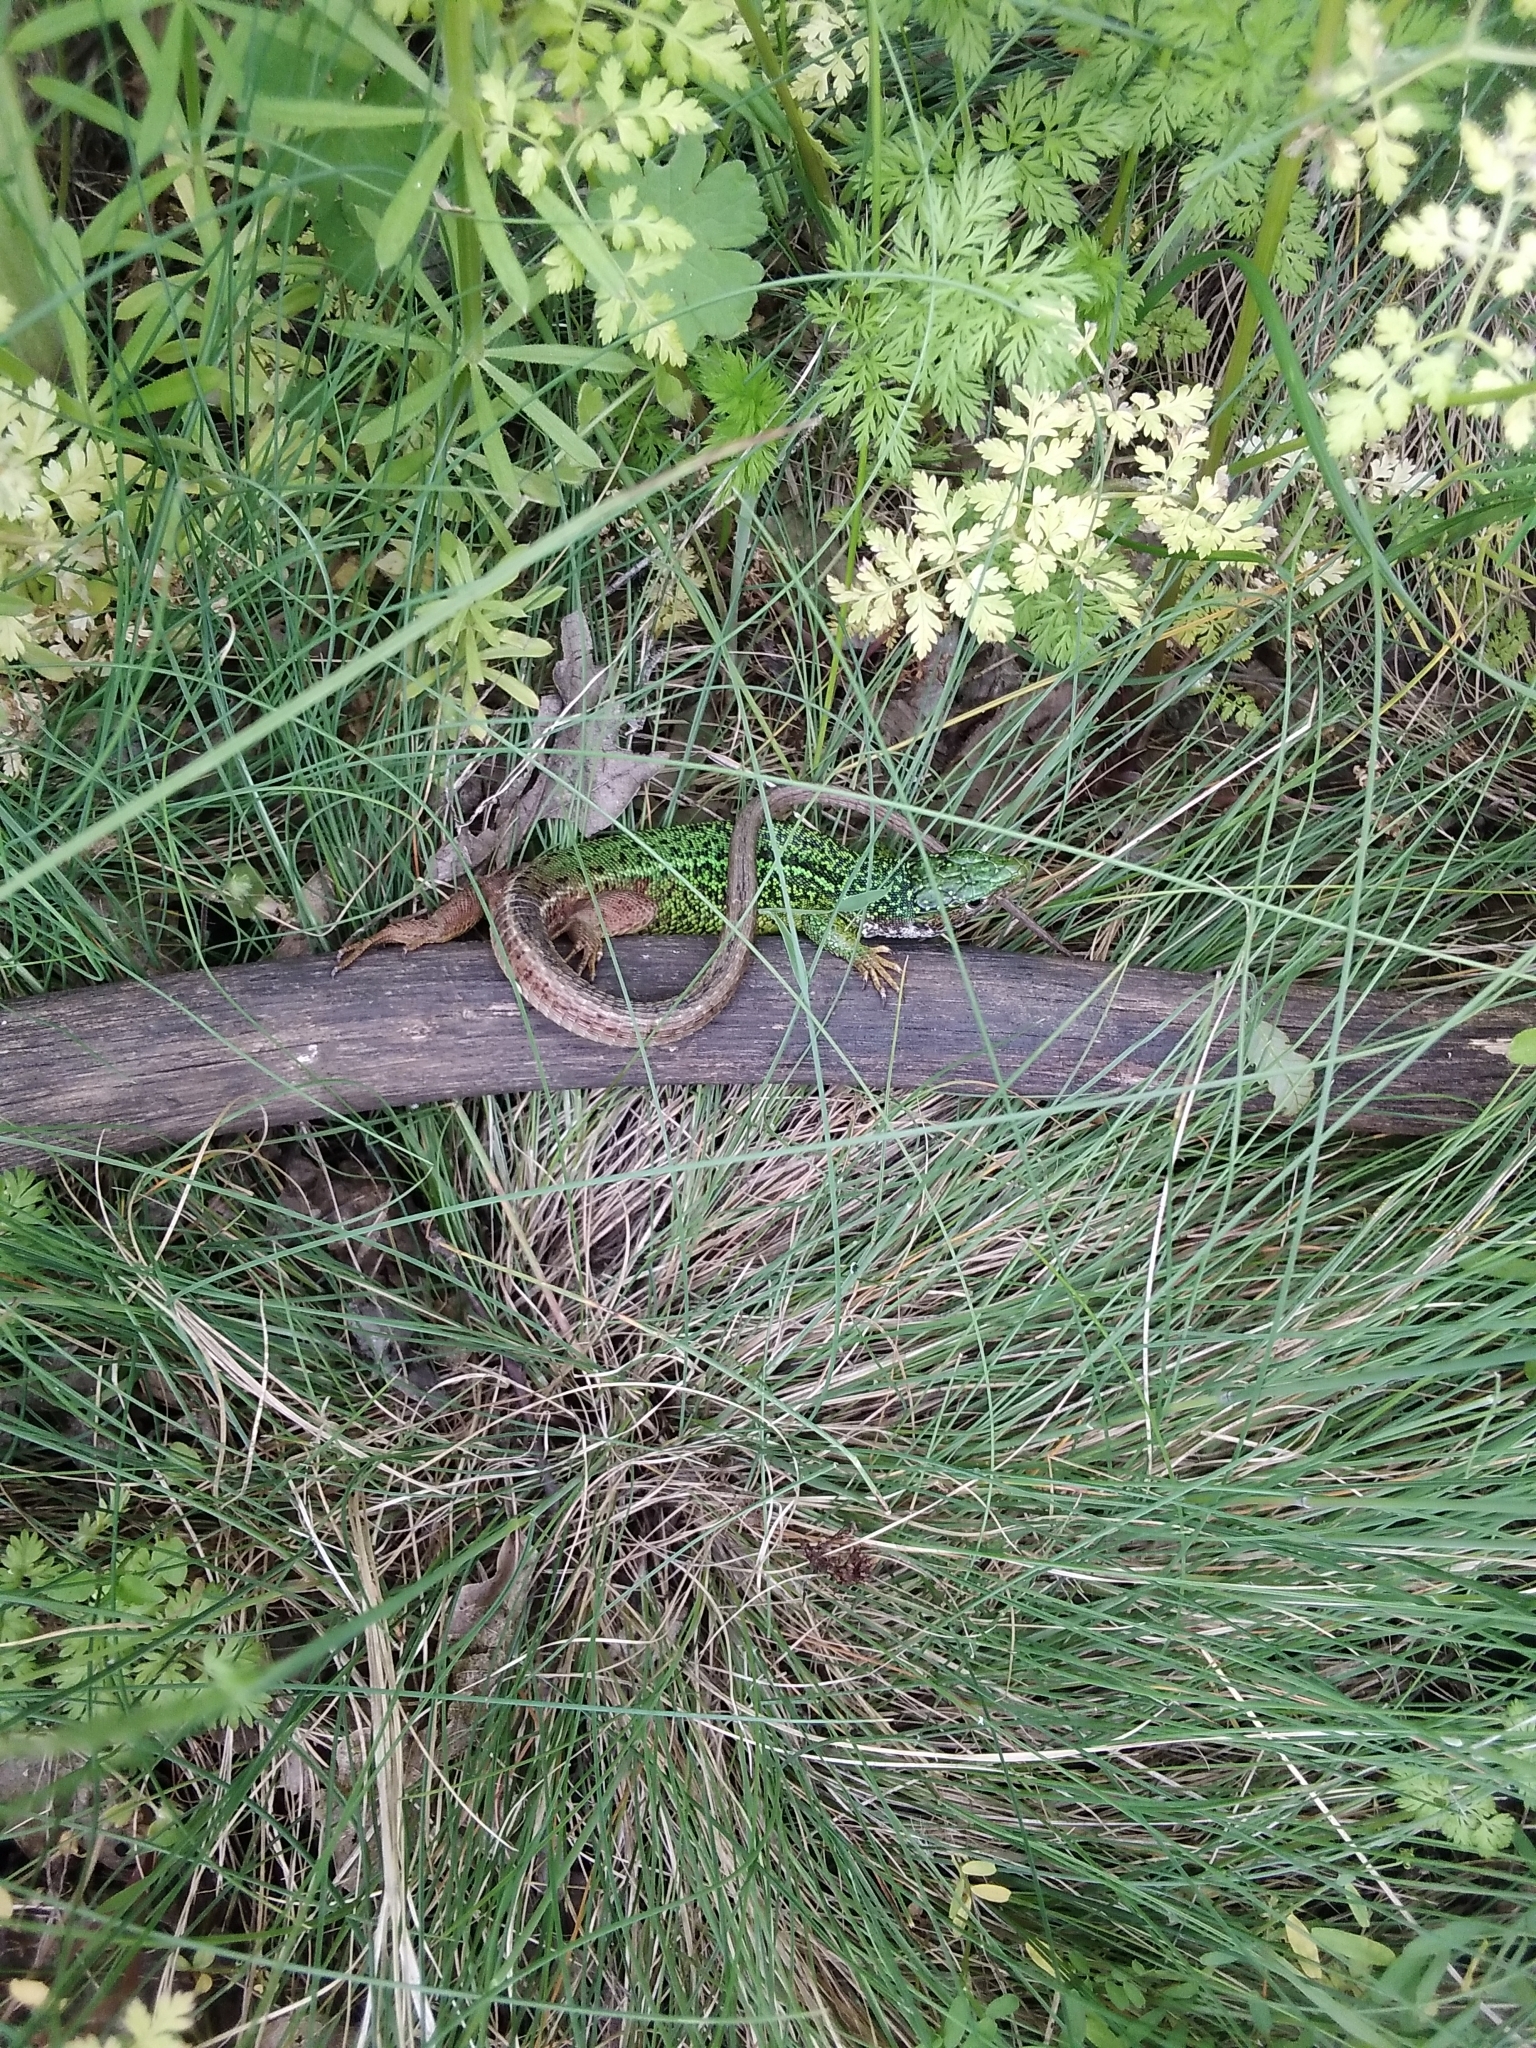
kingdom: Animalia
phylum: Chordata
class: Squamata
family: Lacertidae
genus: Lacerta
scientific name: Lacerta viridis
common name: European green lizard
